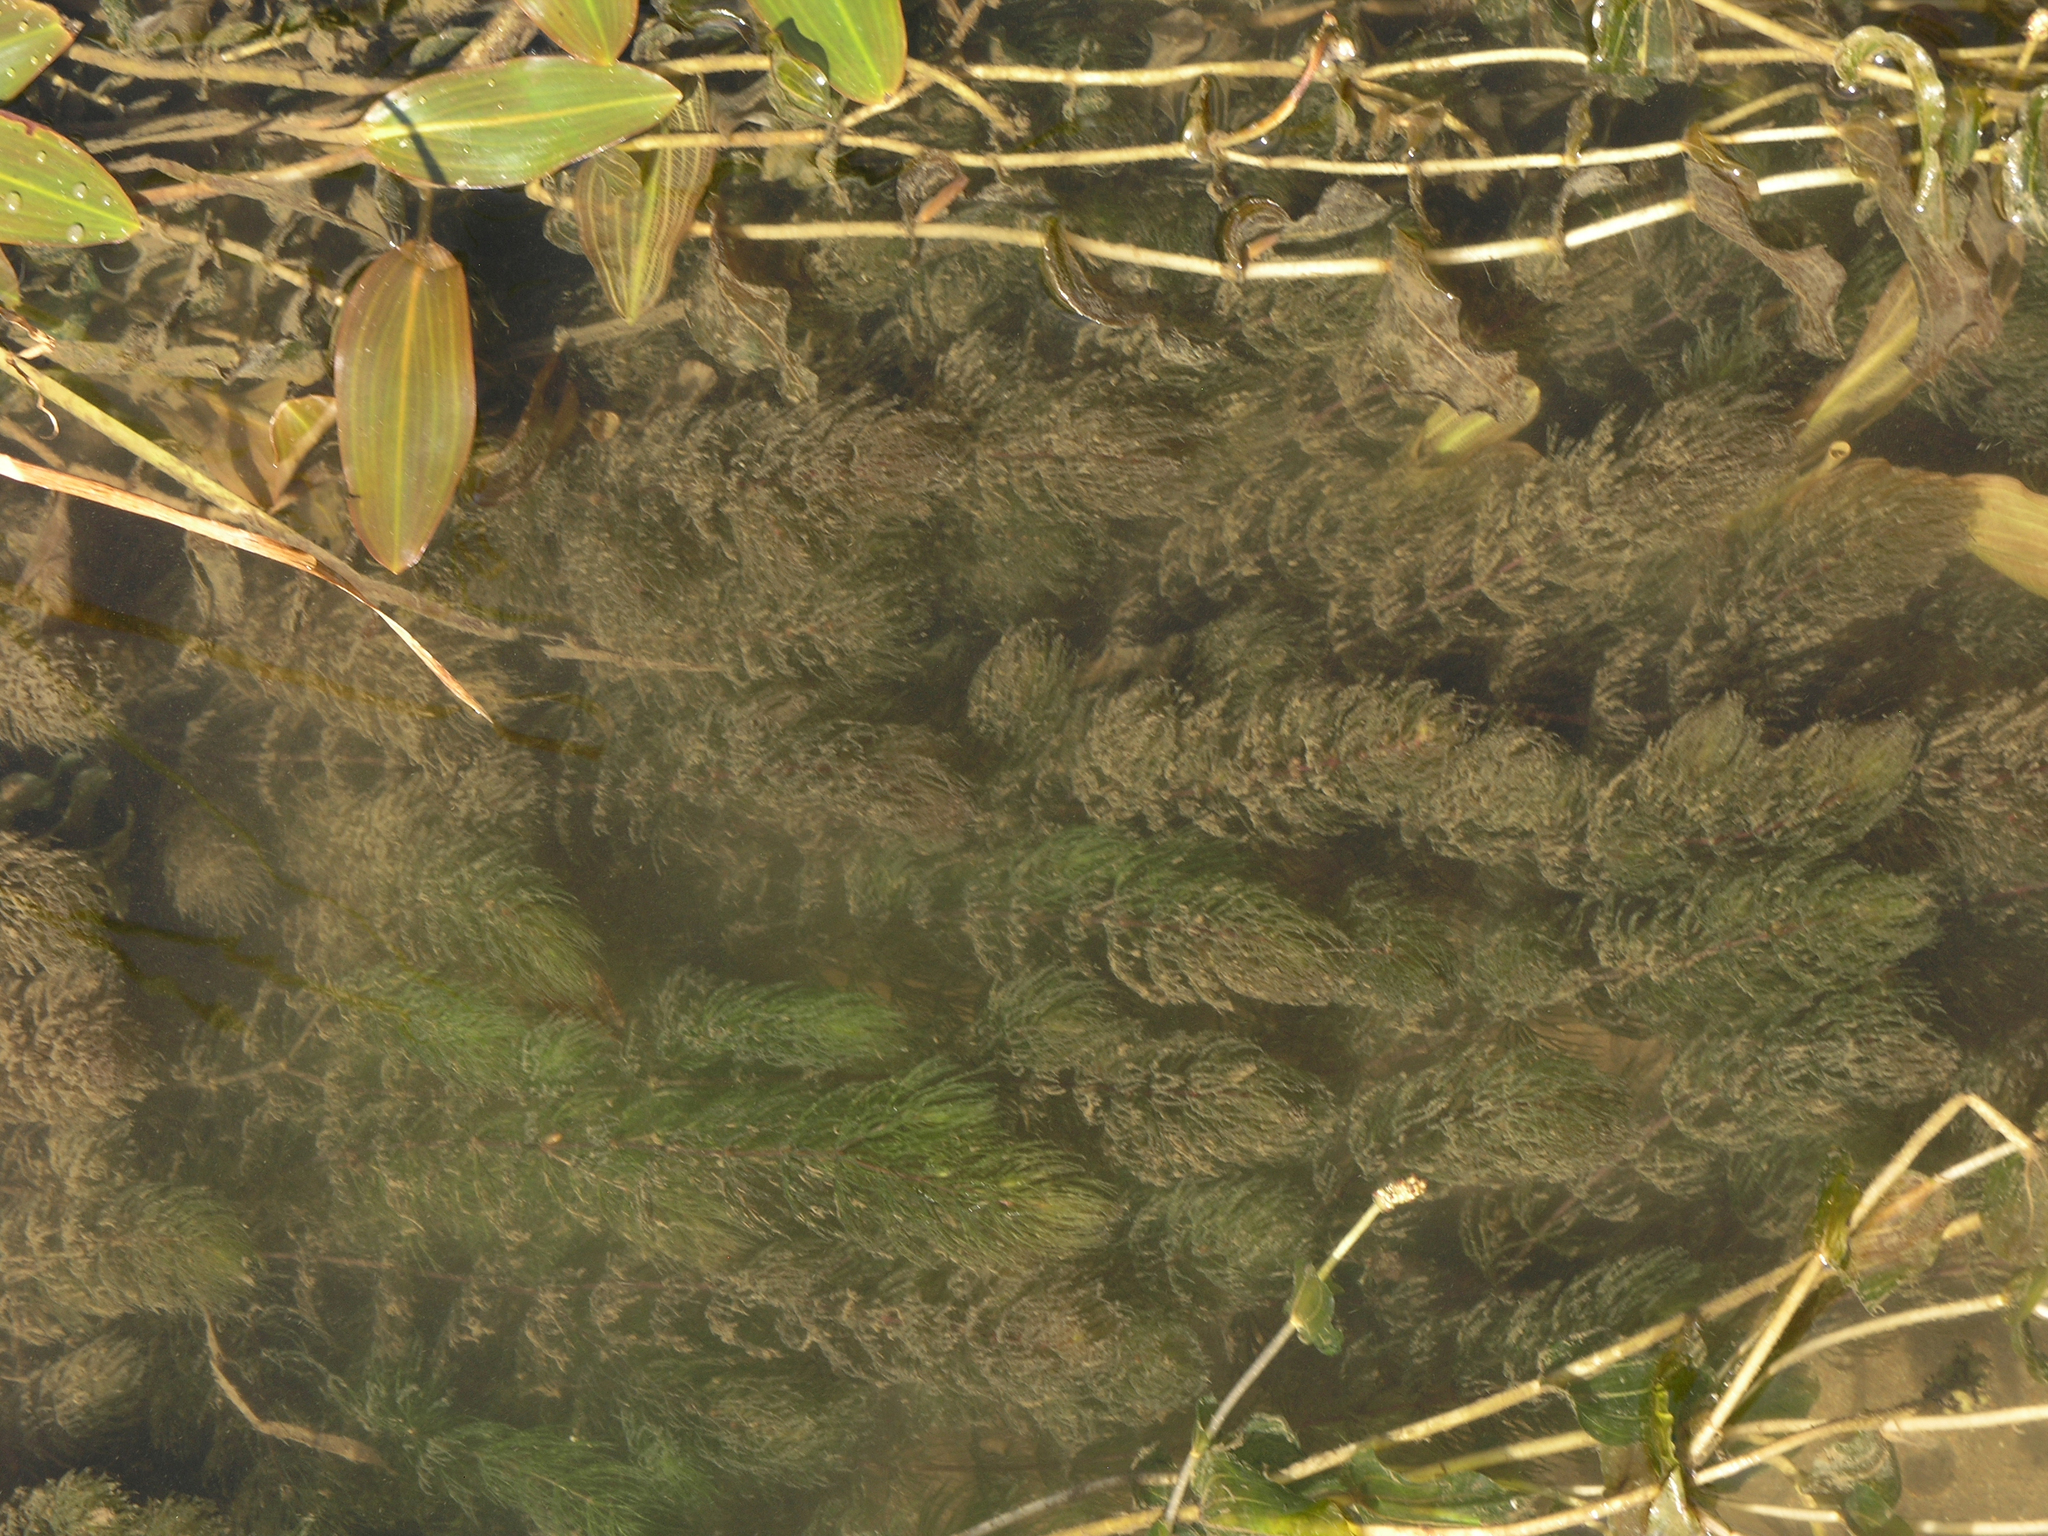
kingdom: Plantae
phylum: Tracheophyta
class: Magnoliopsida
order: Ceratophyllales
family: Ceratophyllaceae
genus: Ceratophyllum
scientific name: Ceratophyllum demersum
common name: Rigid hornwort
